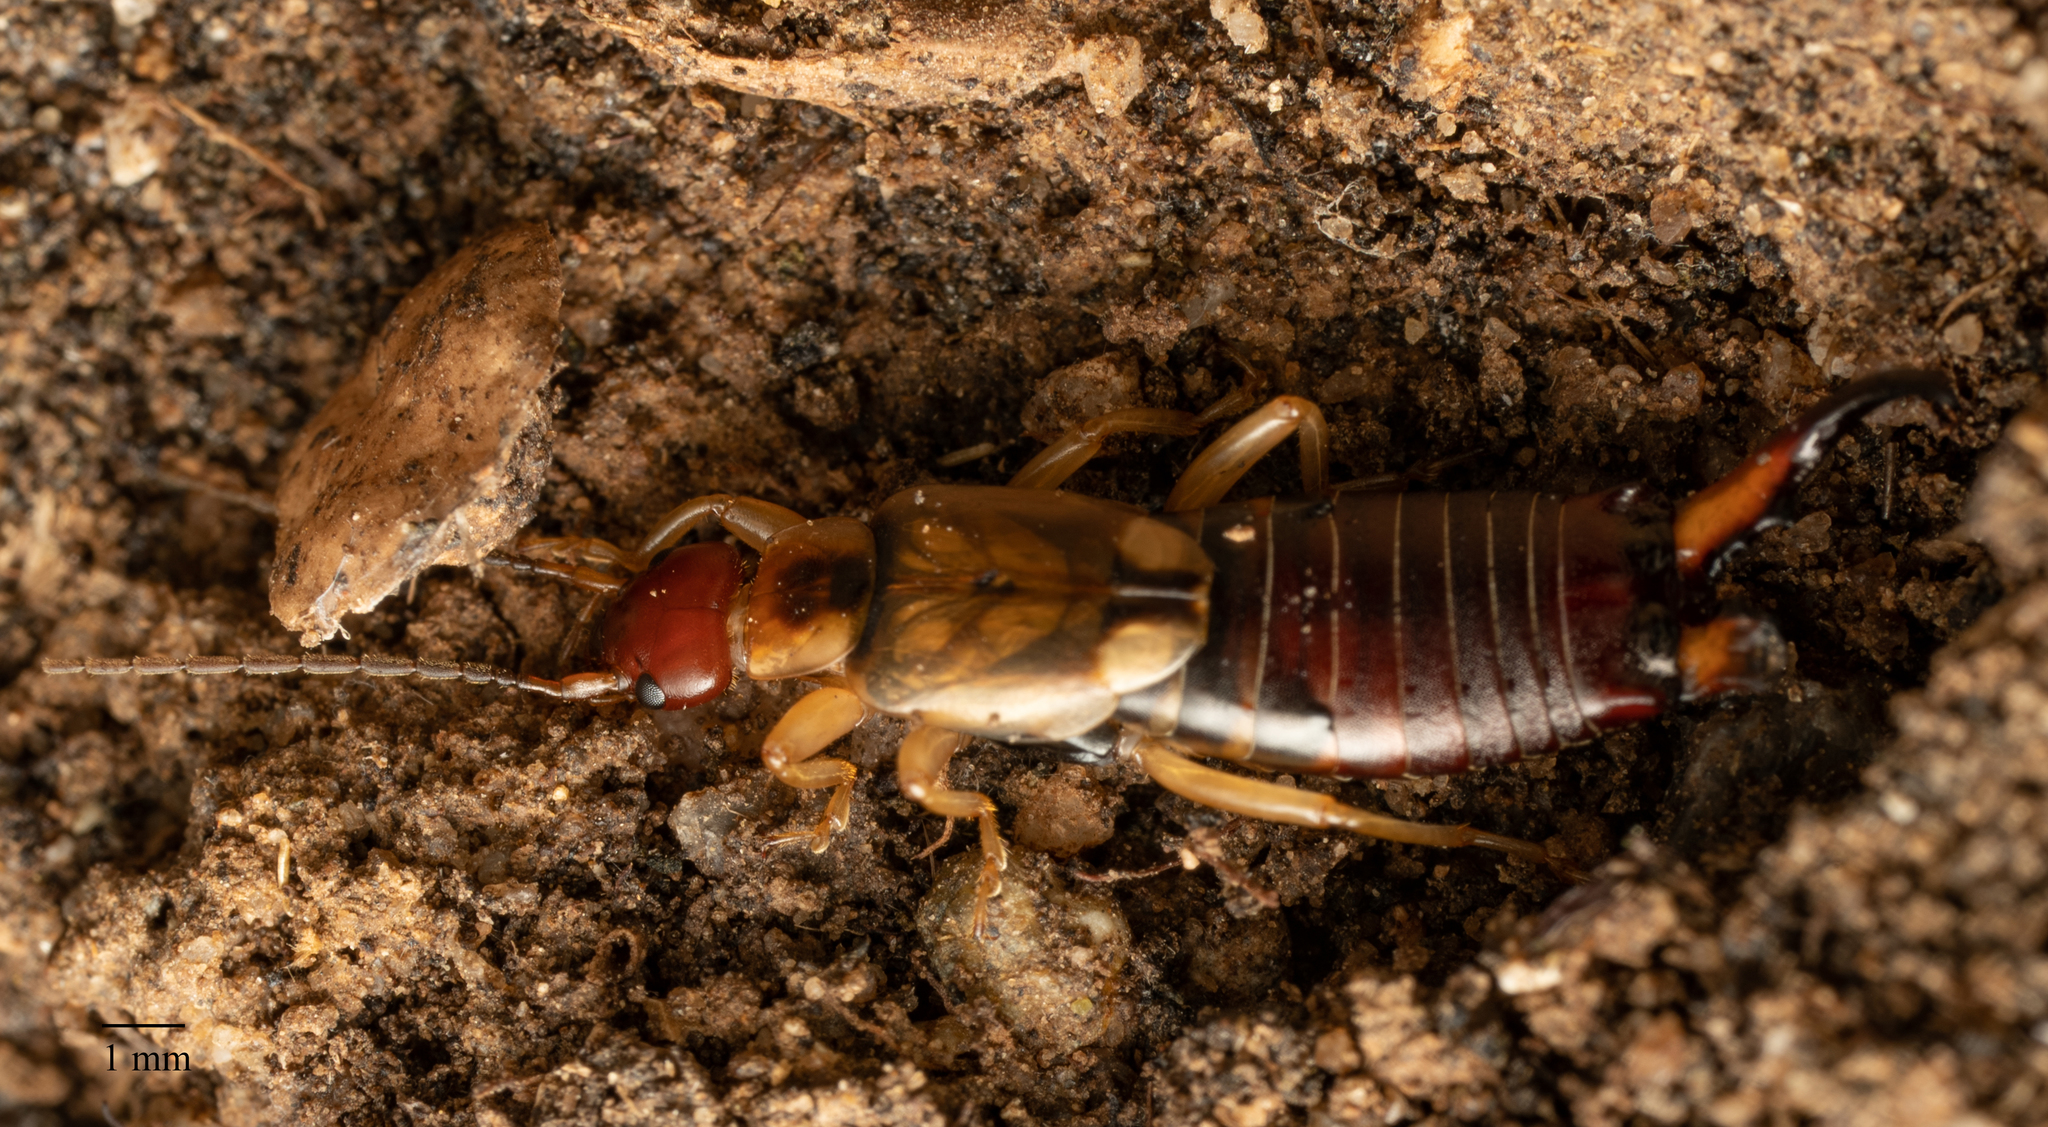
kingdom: Animalia
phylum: Arthropoda
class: Insecta
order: Dermaptera
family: Forficulidae
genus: Forficula
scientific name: Forficula
